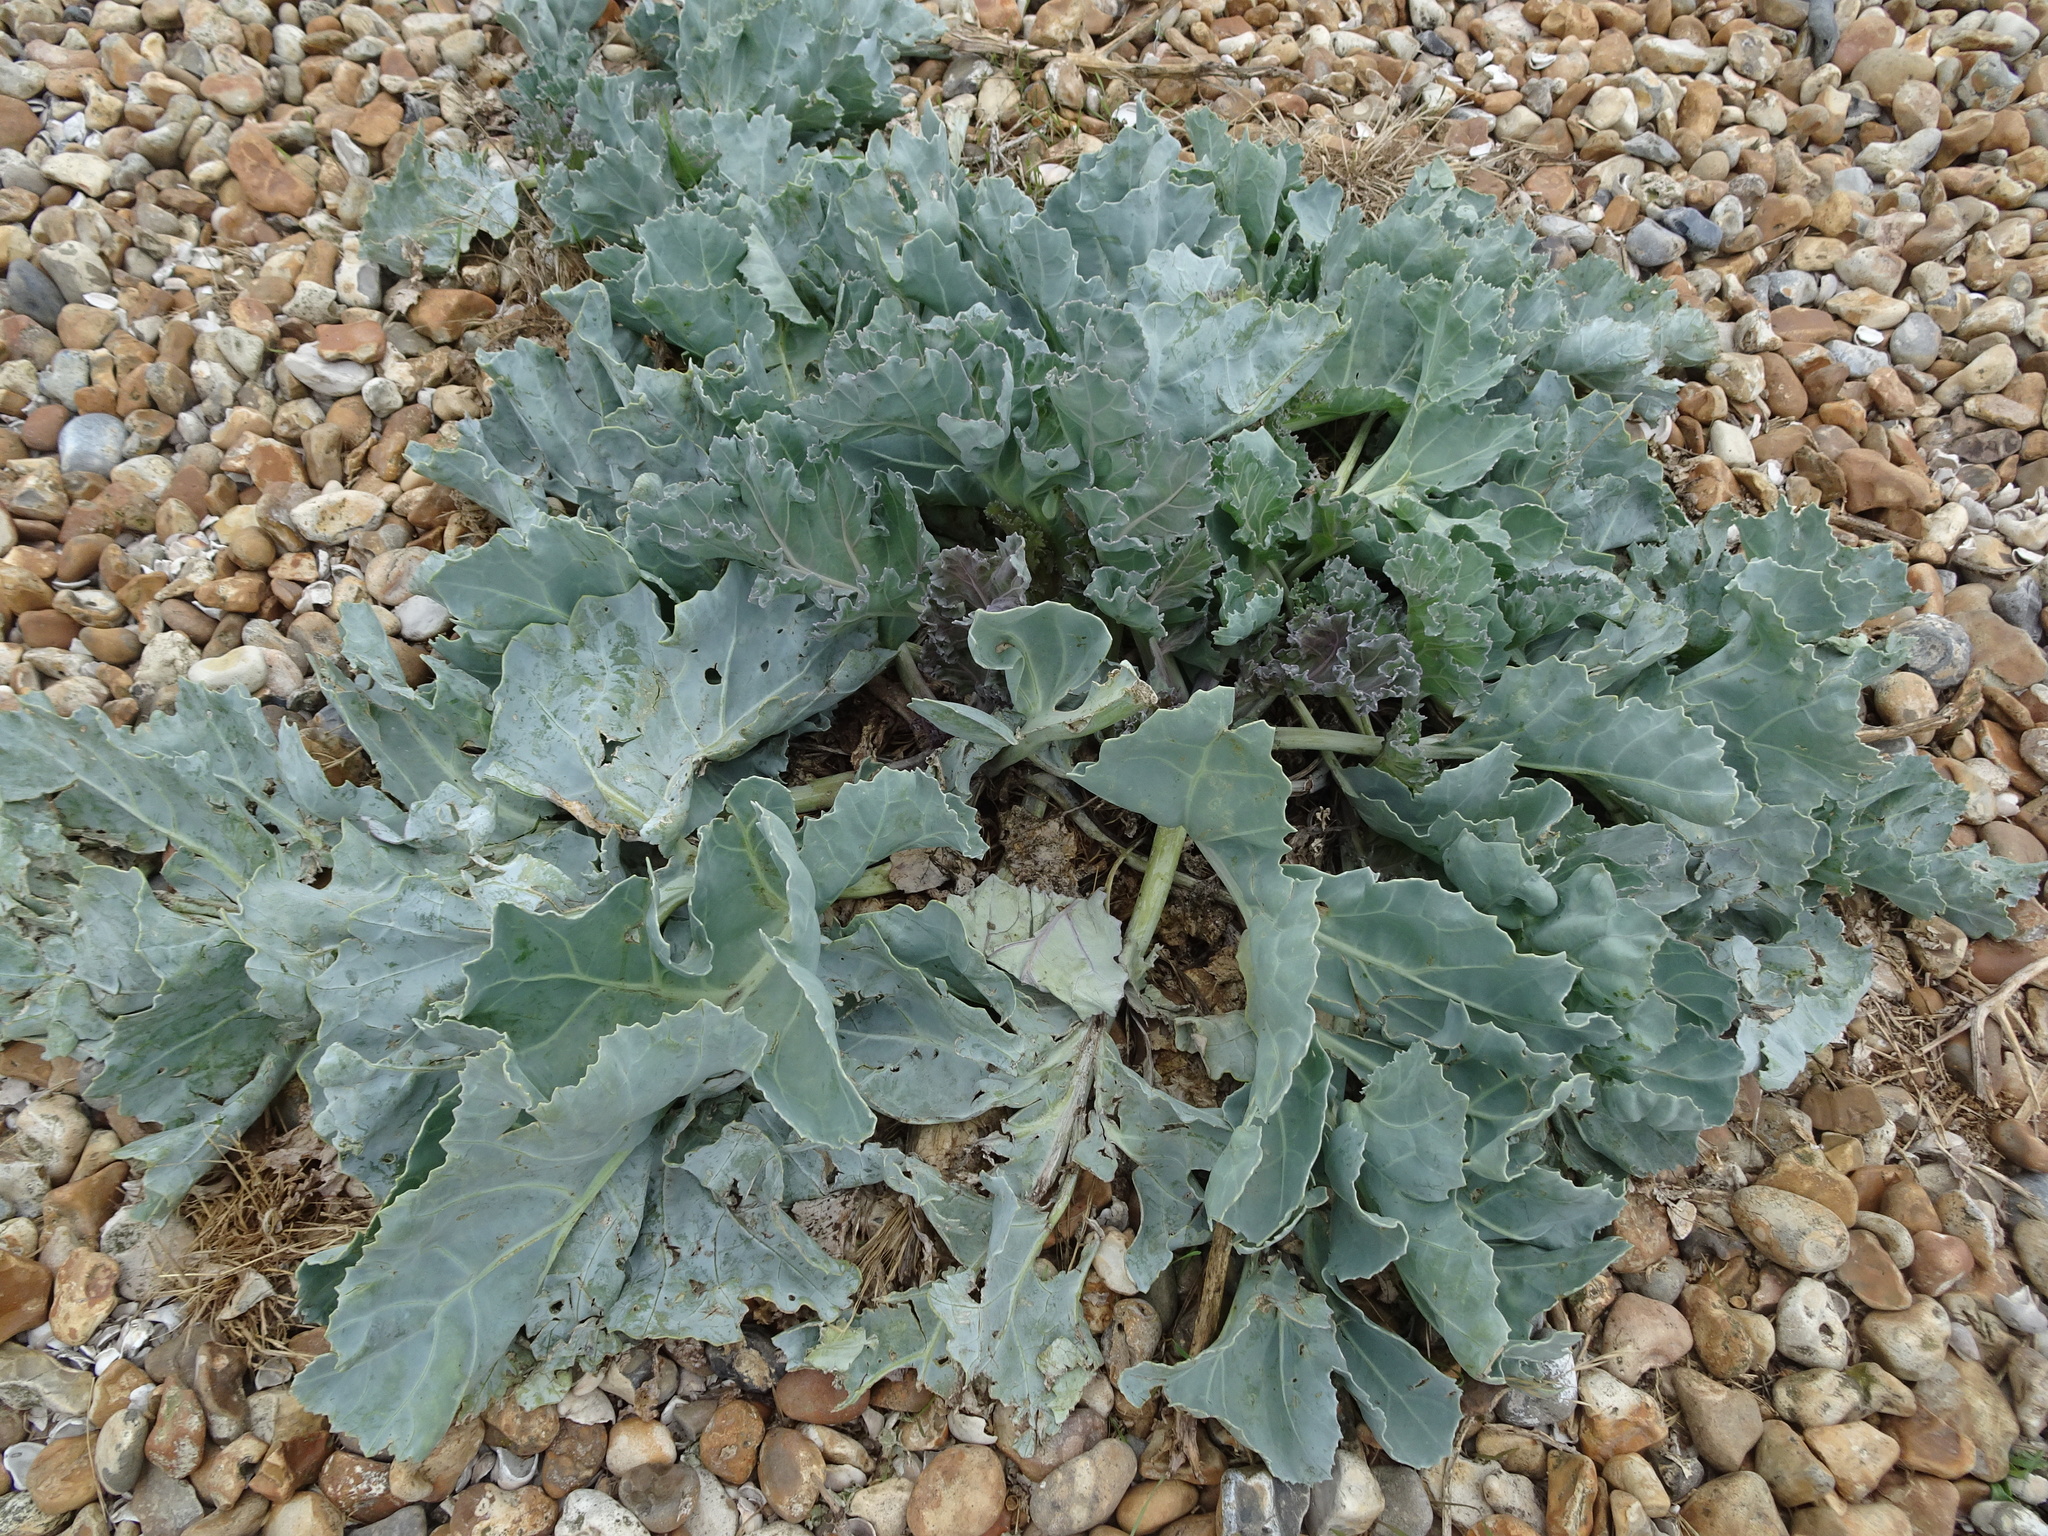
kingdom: Plantae
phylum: Tracheophyta
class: Magnoliopsida
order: Brassicales
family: Brassicaceae
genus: Crambe
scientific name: Crambe maritima
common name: Sea-kale
